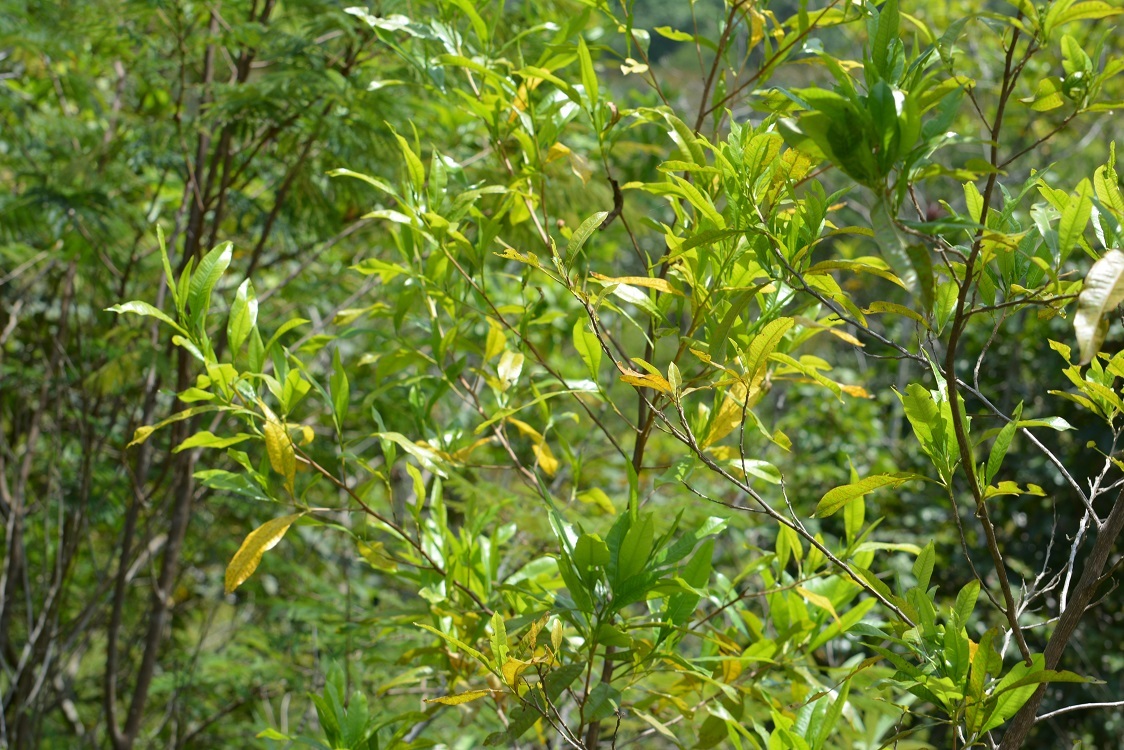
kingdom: Plantae
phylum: Tracheophyta
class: Magnoliopsida
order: Sapindales
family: Sapindaceae
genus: Dodonaea
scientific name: Dodonaea viscosa
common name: Hopbush
